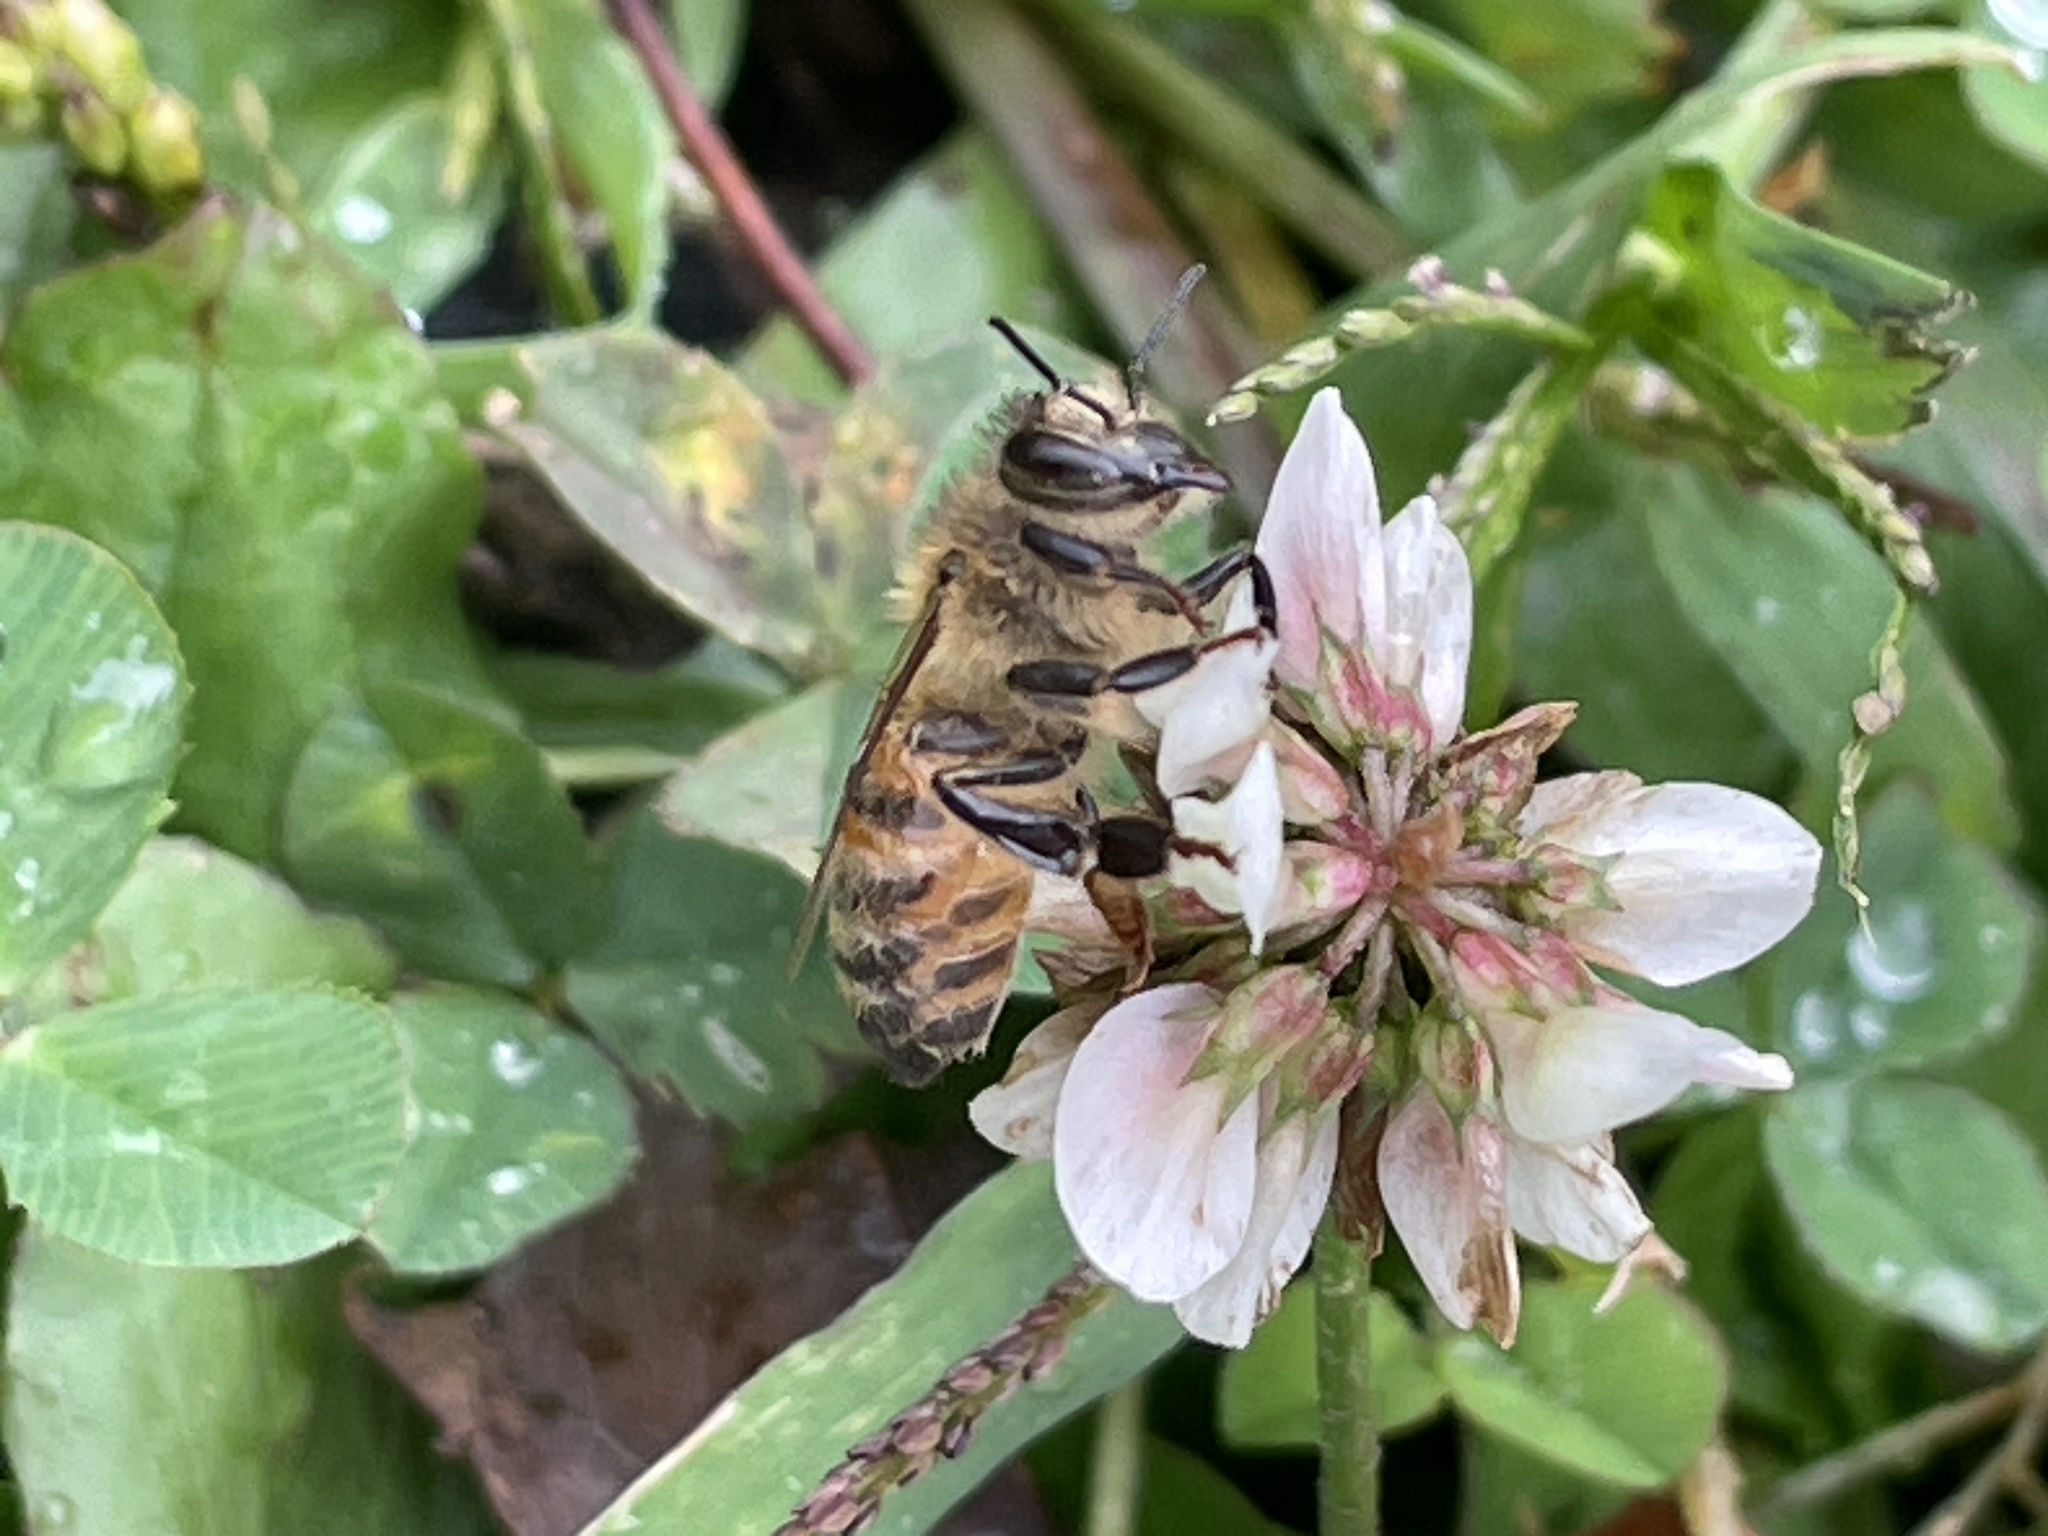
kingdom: Animalia
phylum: Arthropoda
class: Insecta
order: Hymenoptera
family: Apidae
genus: Apis
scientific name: Apis mellifera
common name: Honey bee
